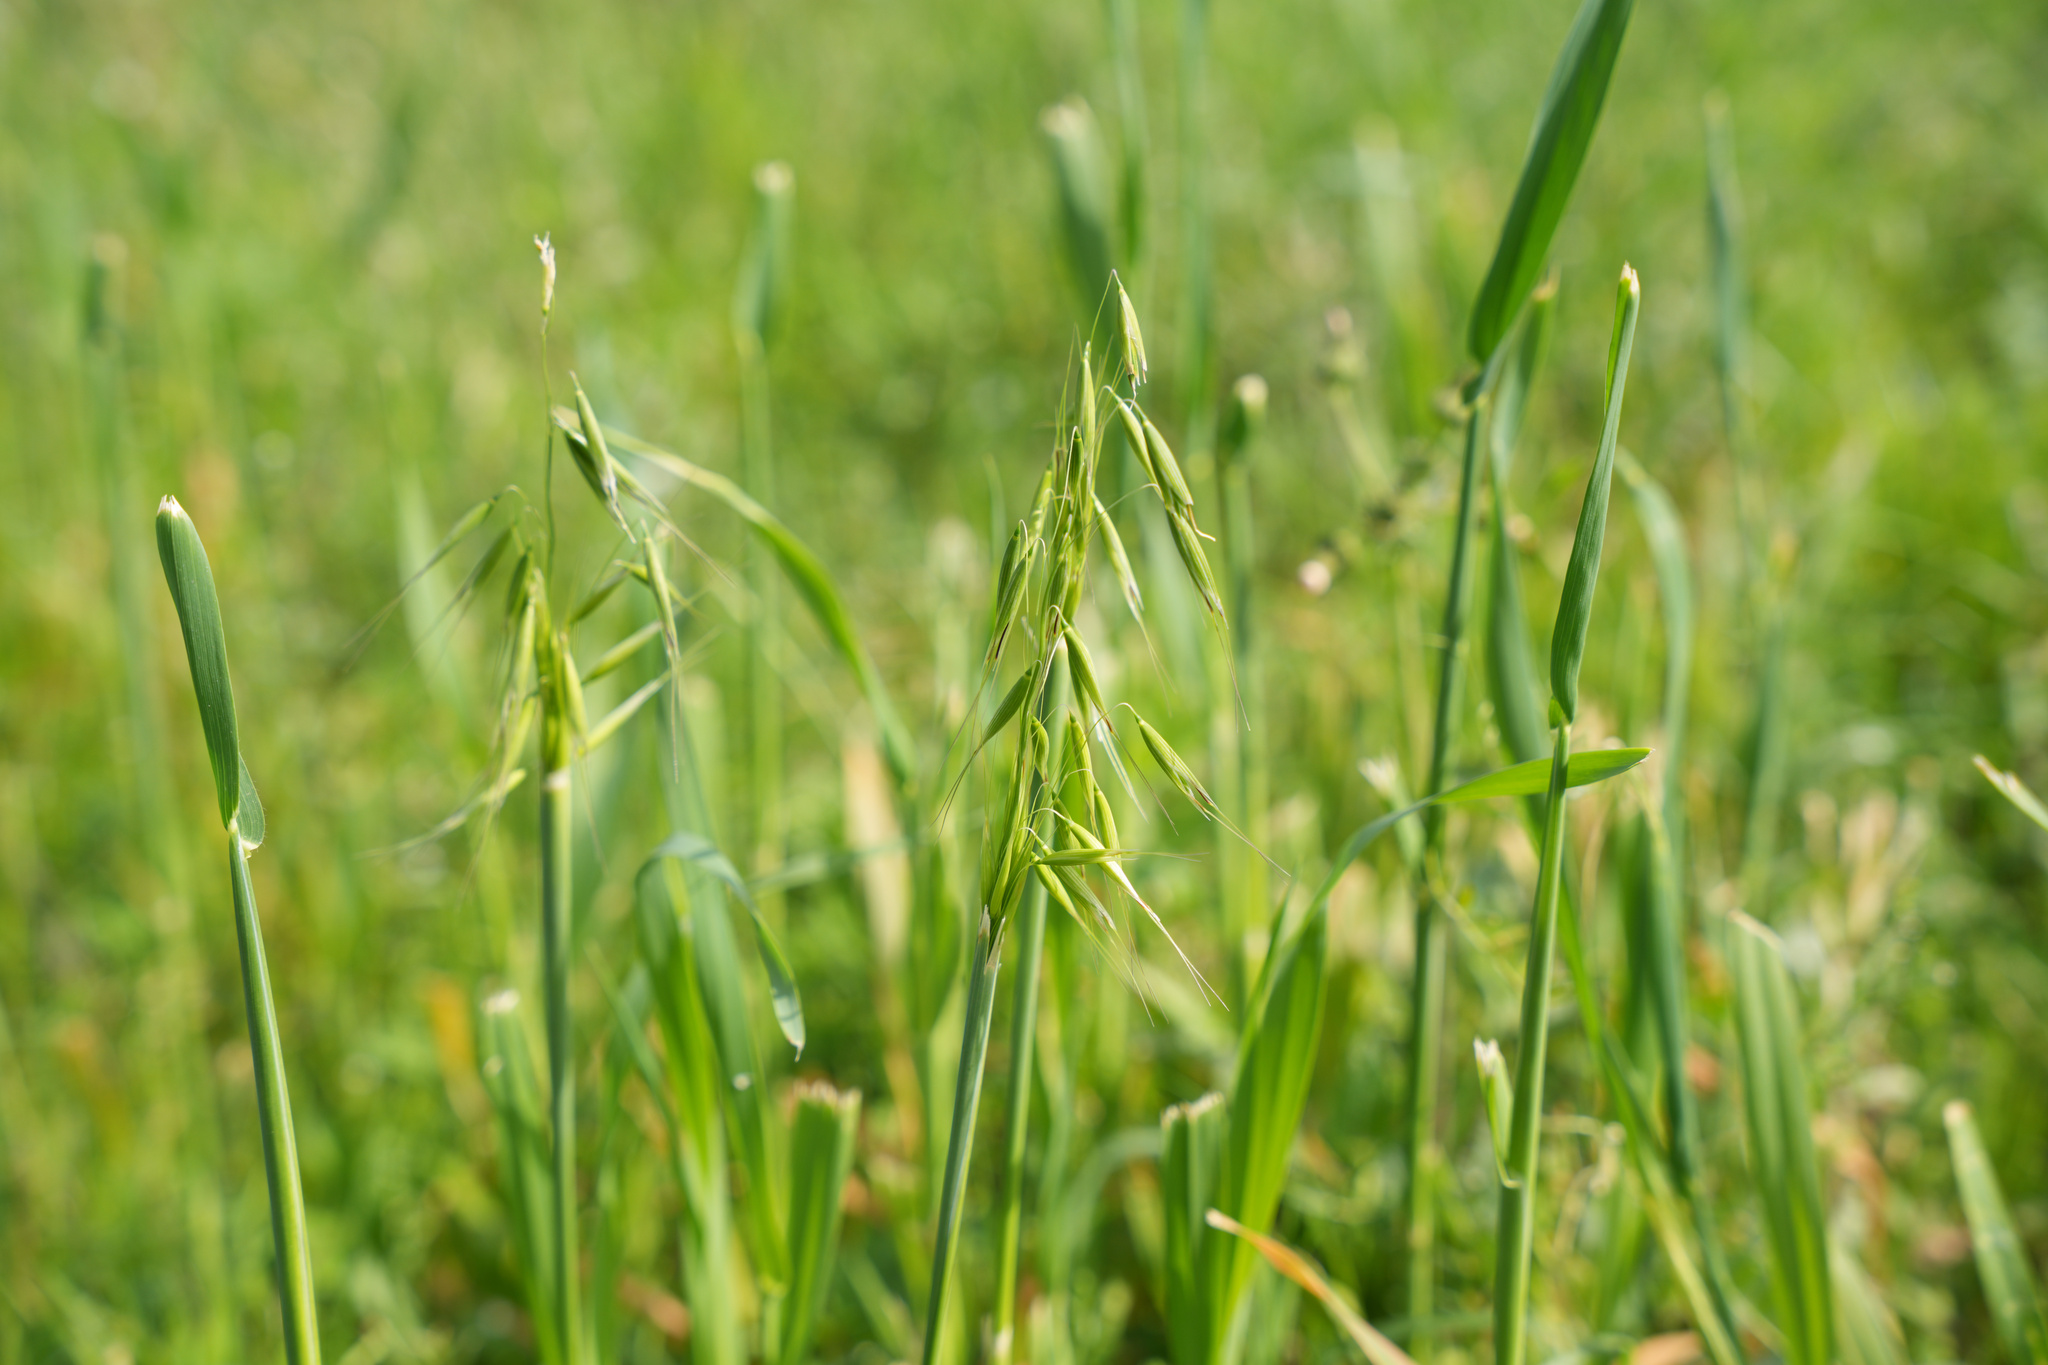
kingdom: Plantae
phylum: Tracheophyta
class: Liliopsida
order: Poales
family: Poaceae
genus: Avena
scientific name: Avena fatua
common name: Wild oat
